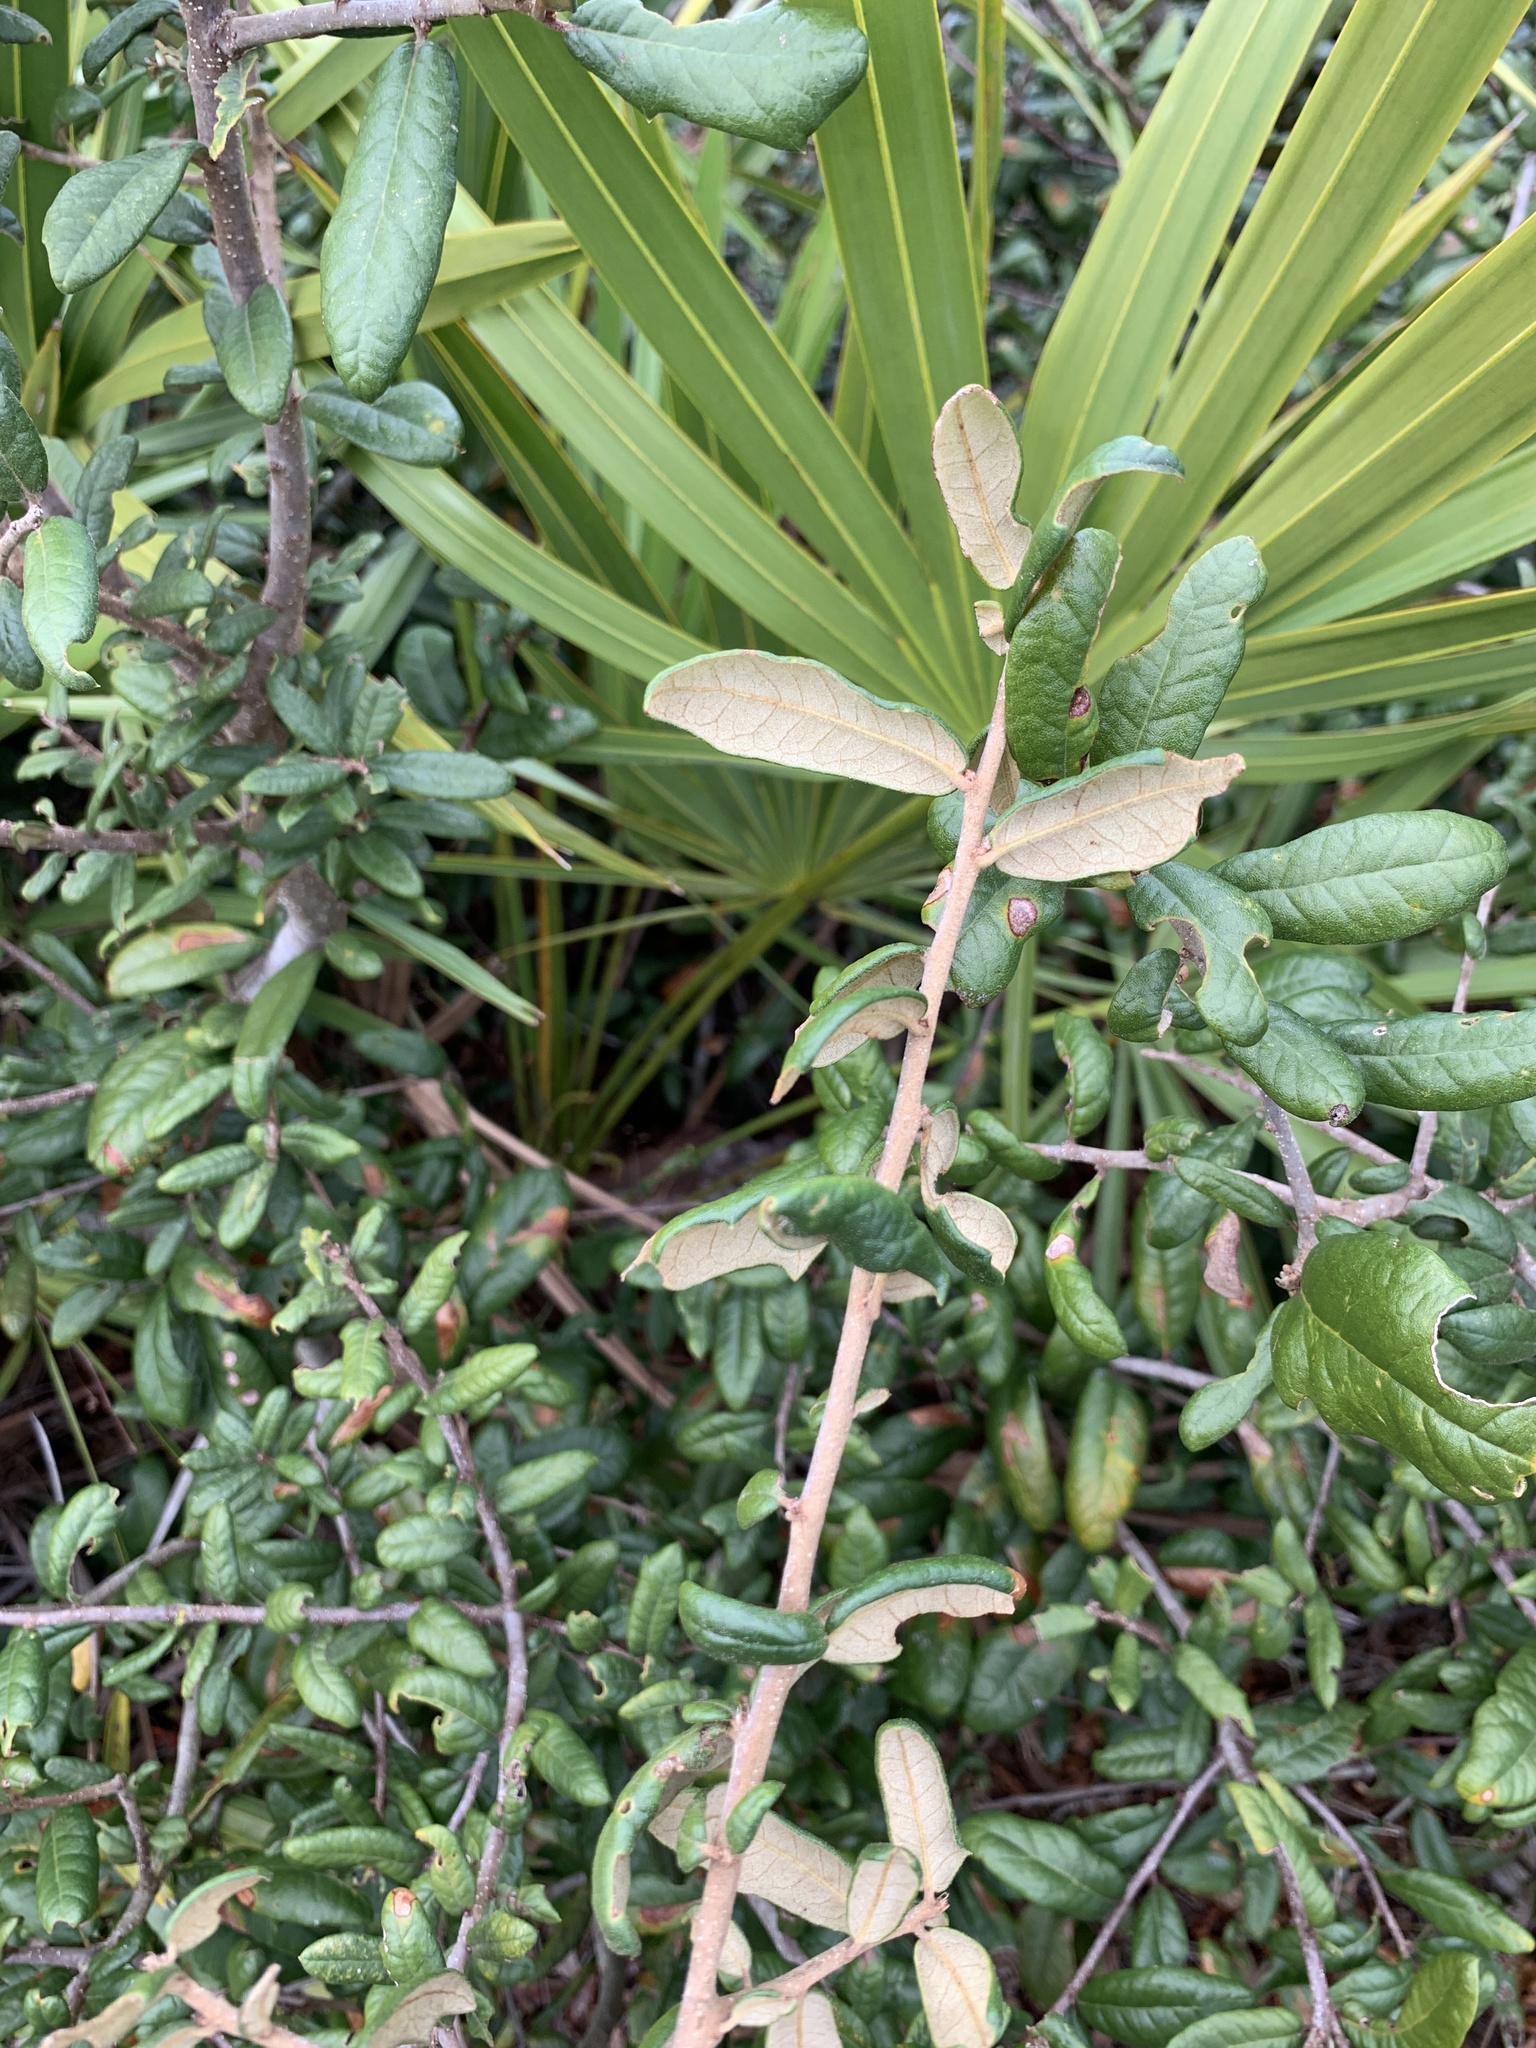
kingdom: Plantae
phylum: Tracheophyta
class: Magnoliopsida
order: Fagales
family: Fagaceae
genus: Quercus
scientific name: Quercus geminata
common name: Sand live oak
